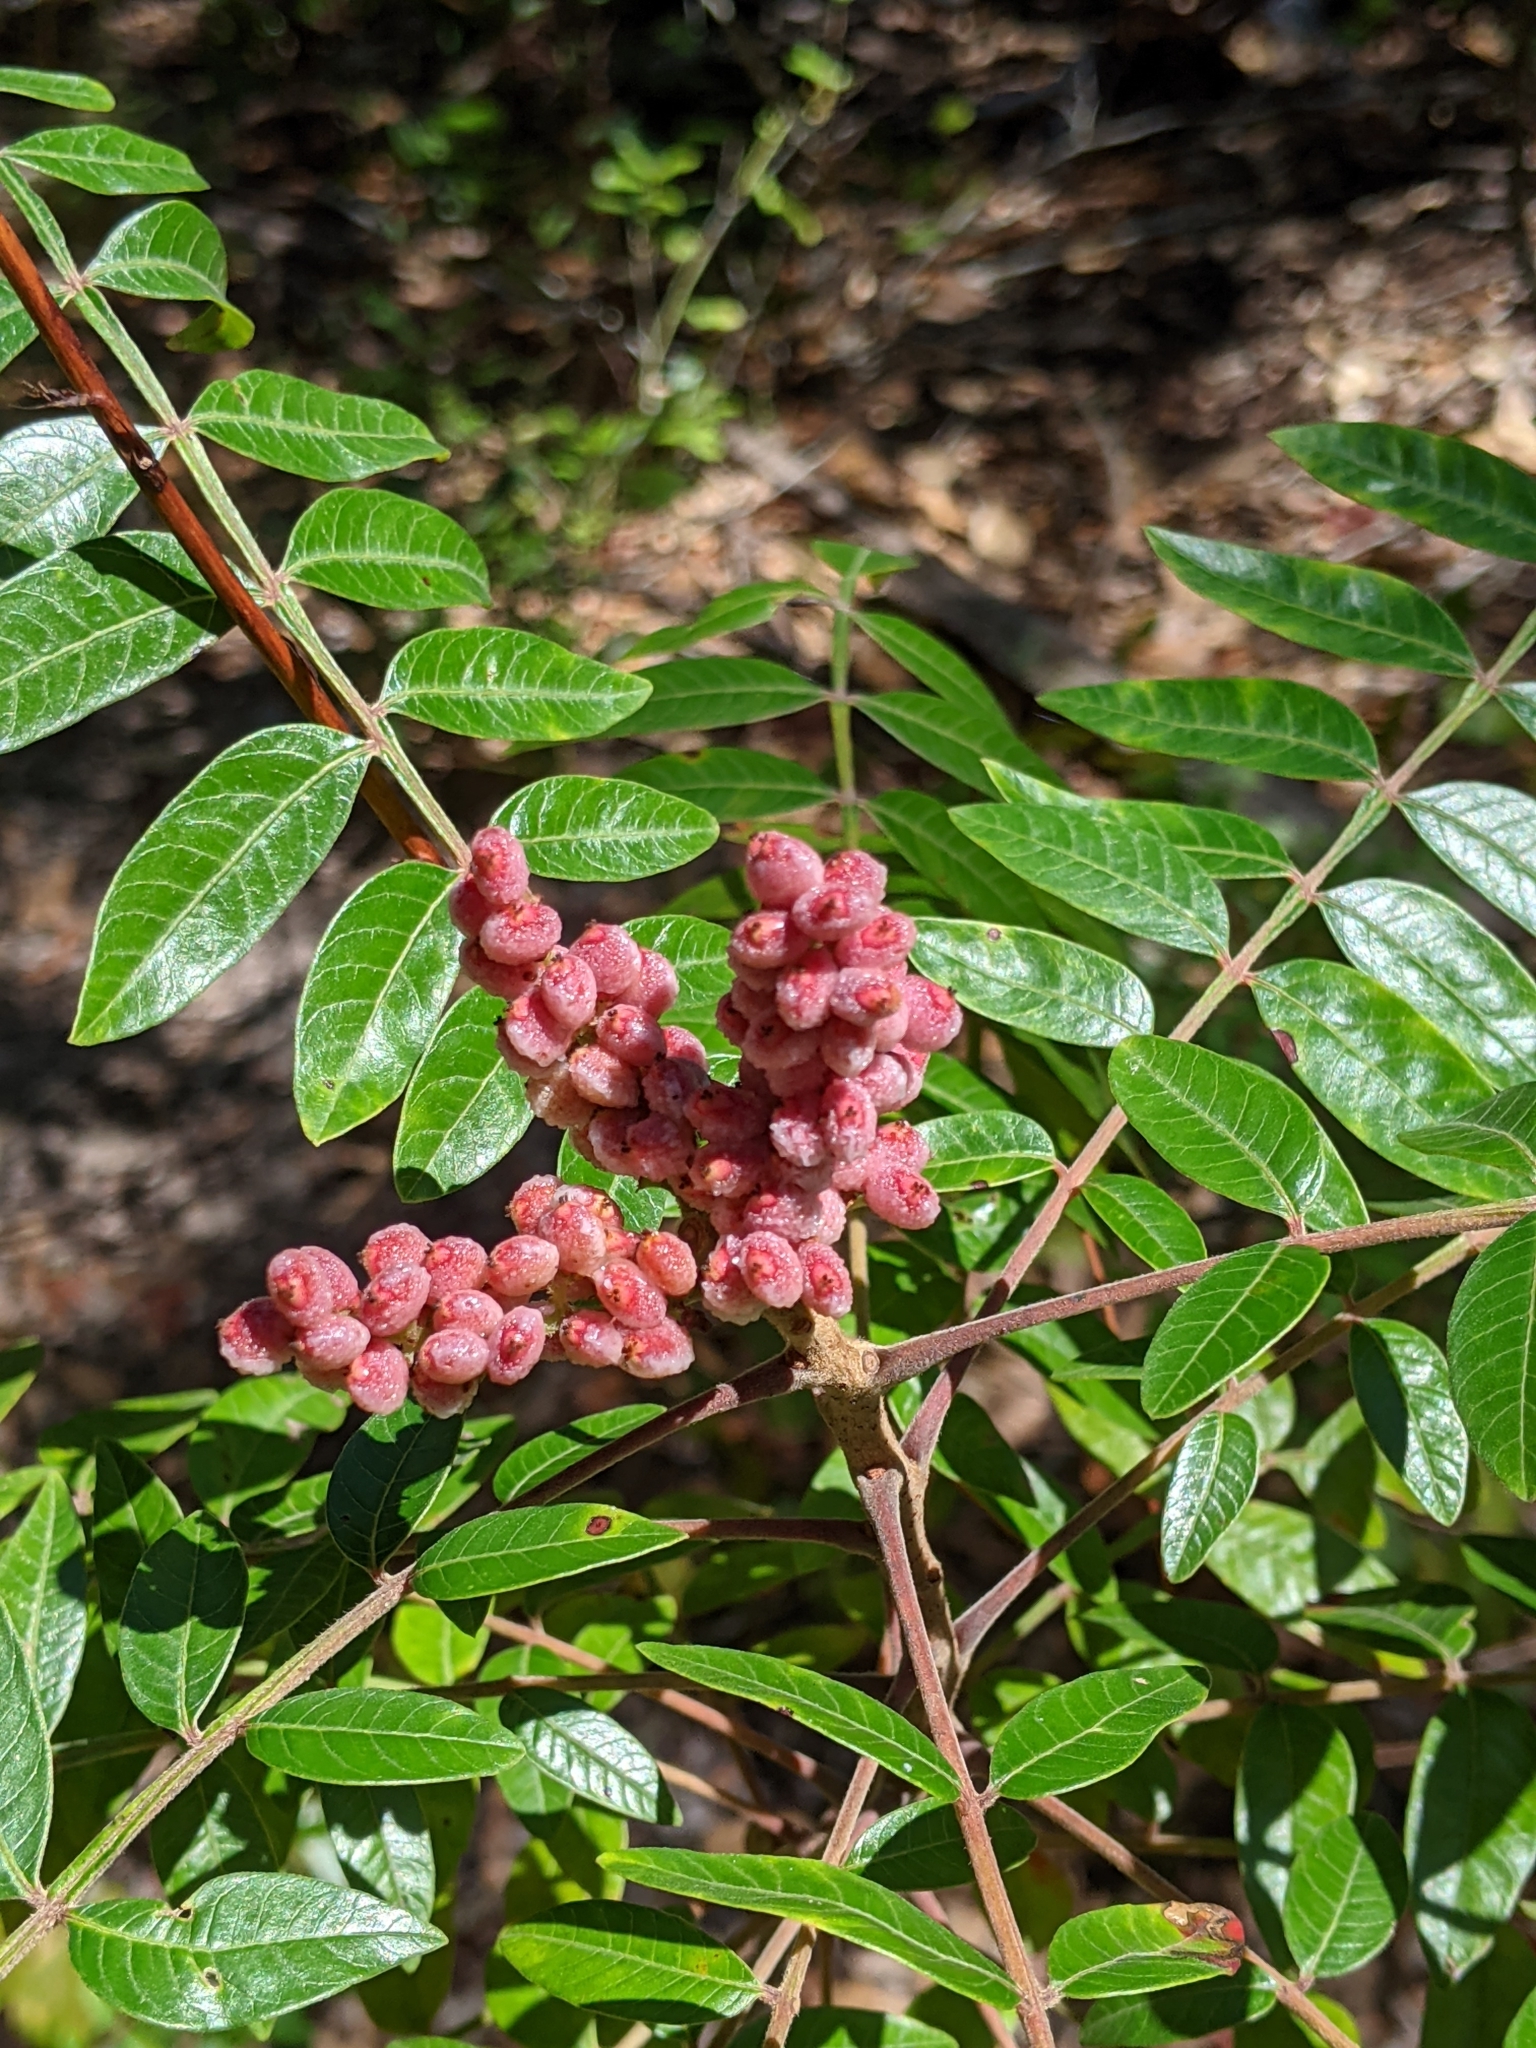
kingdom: Plantae
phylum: Tracheophyta
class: Magnoliopsida
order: Sapindales
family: Anacardiaceae
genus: Rhus
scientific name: Rhus copallina
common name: Shining sumac
